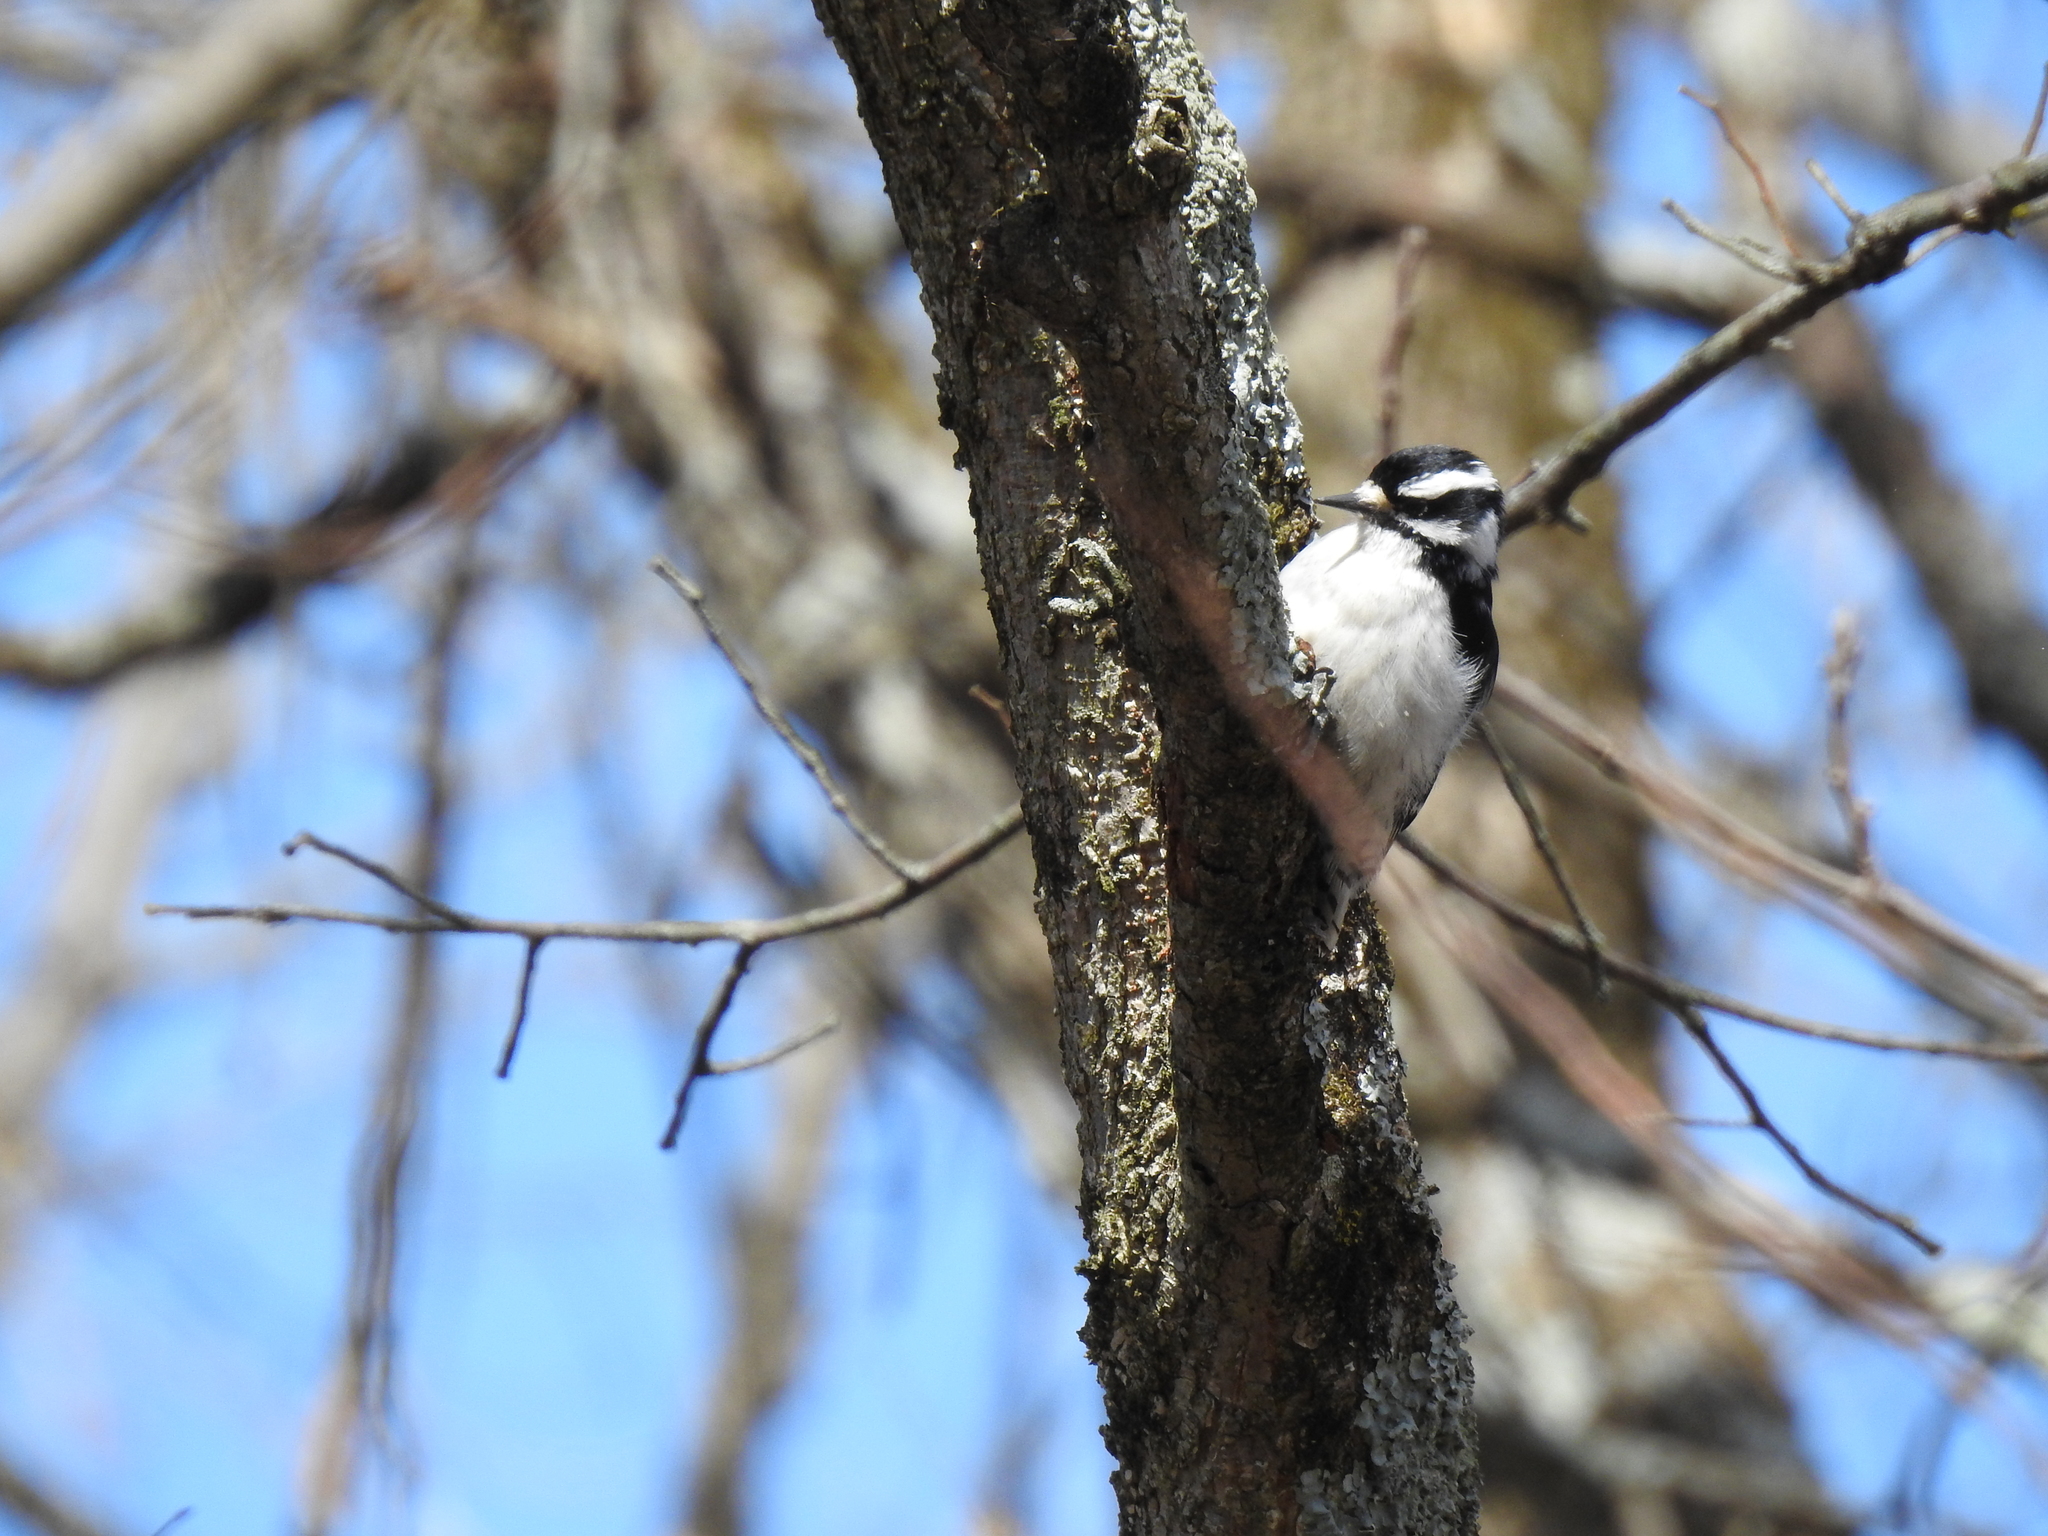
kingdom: Animalia
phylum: Chordata
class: Aves
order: Piciformes
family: Picidae
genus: Dryobates
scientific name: Dryobates pubescens
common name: Downy woodpecker
